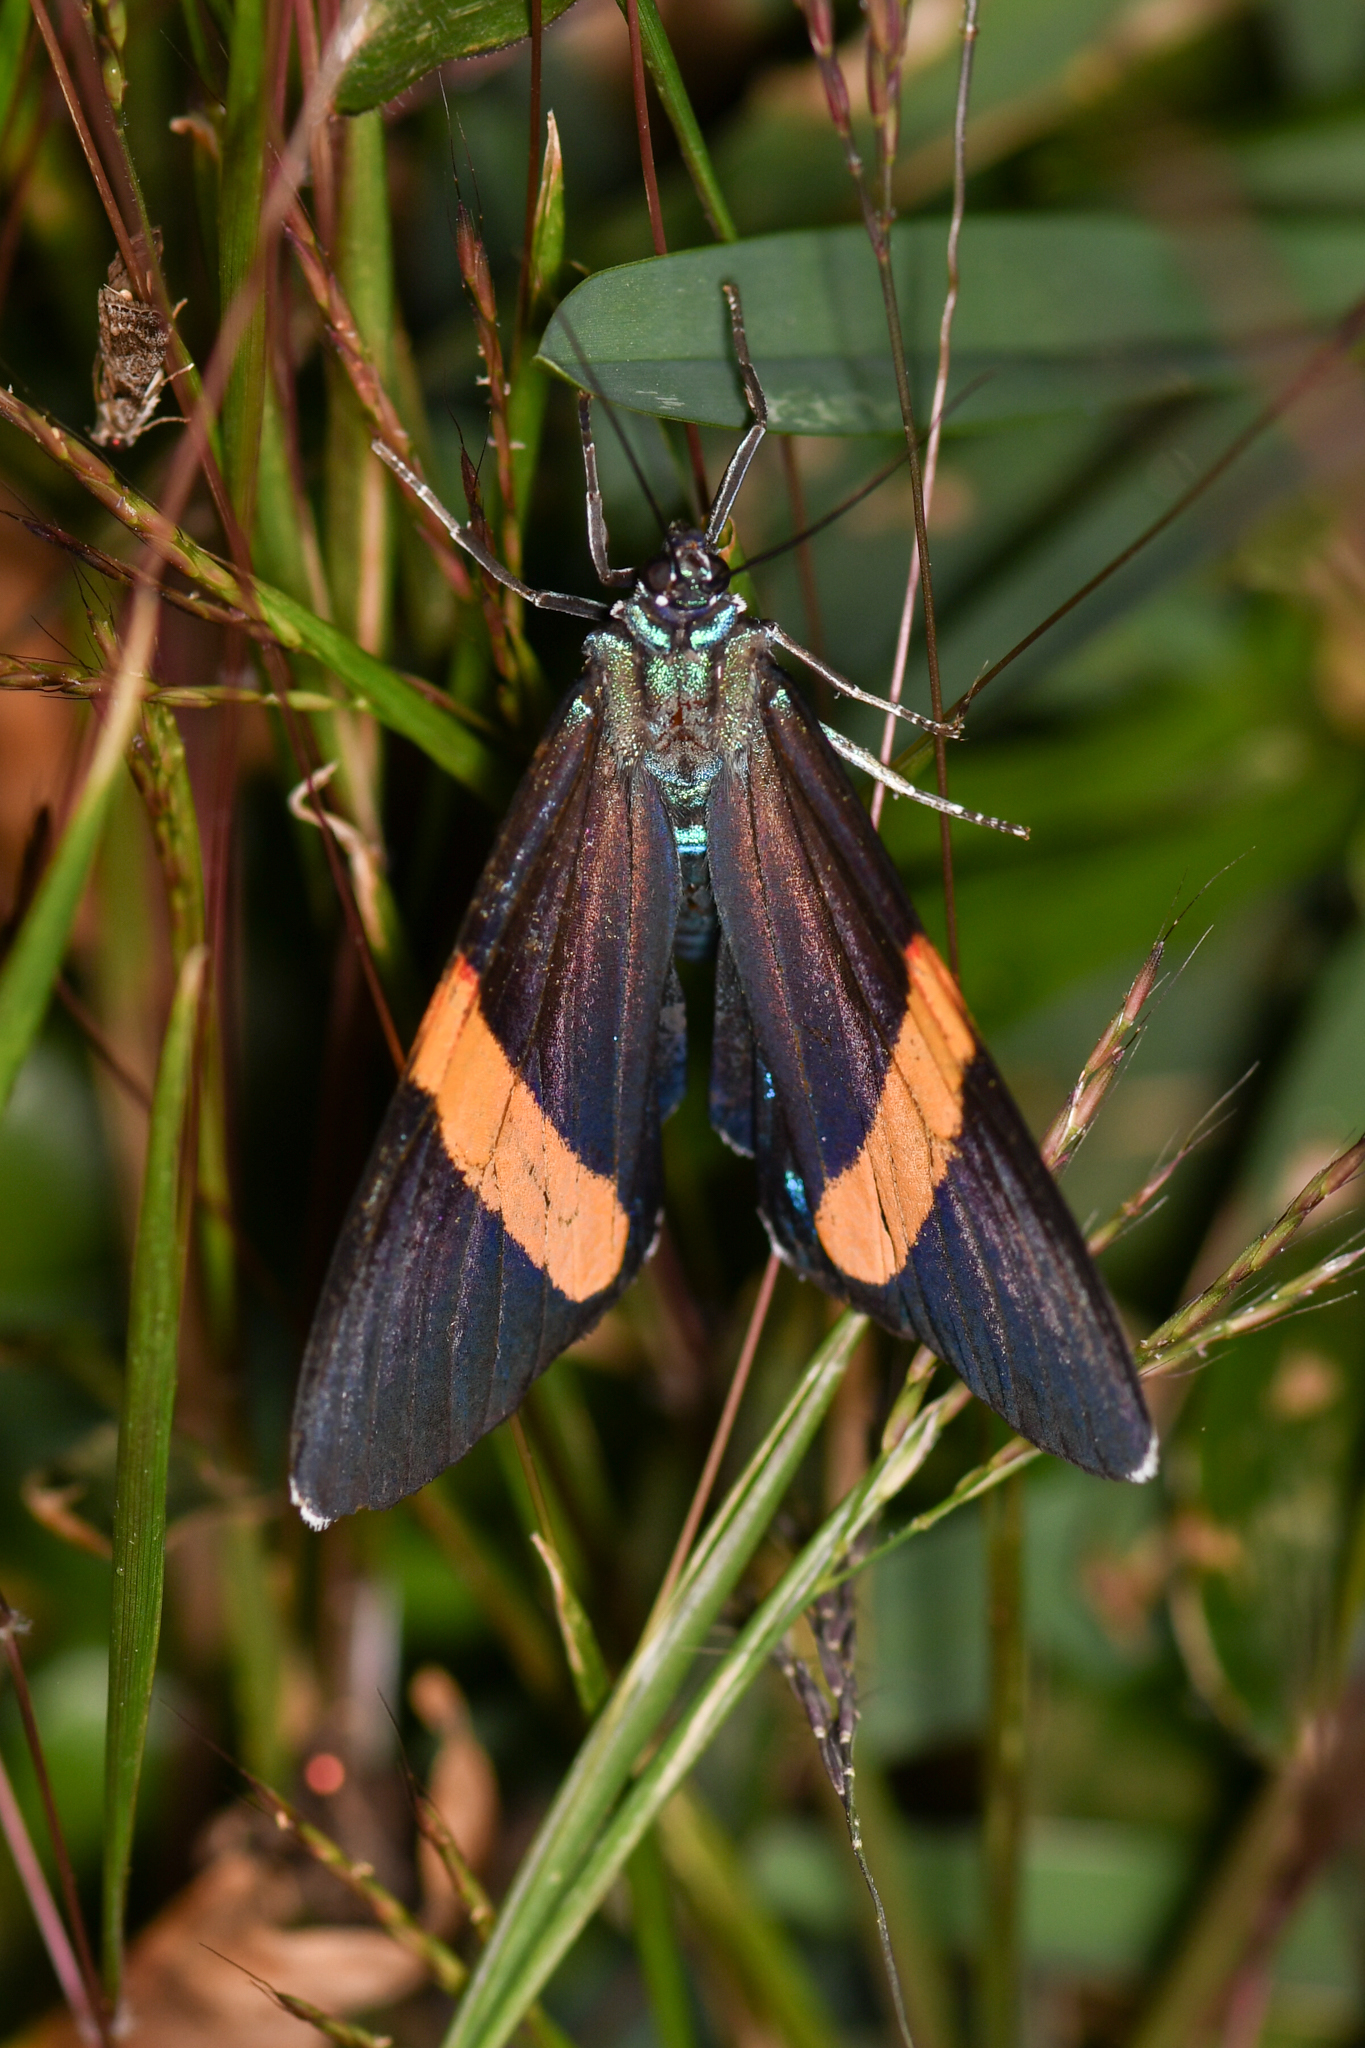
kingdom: Animalia
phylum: Arthropoda
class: Insecta
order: Lepidoptera
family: Erebidae
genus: Hypocrita
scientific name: Hypocrita arcaei
